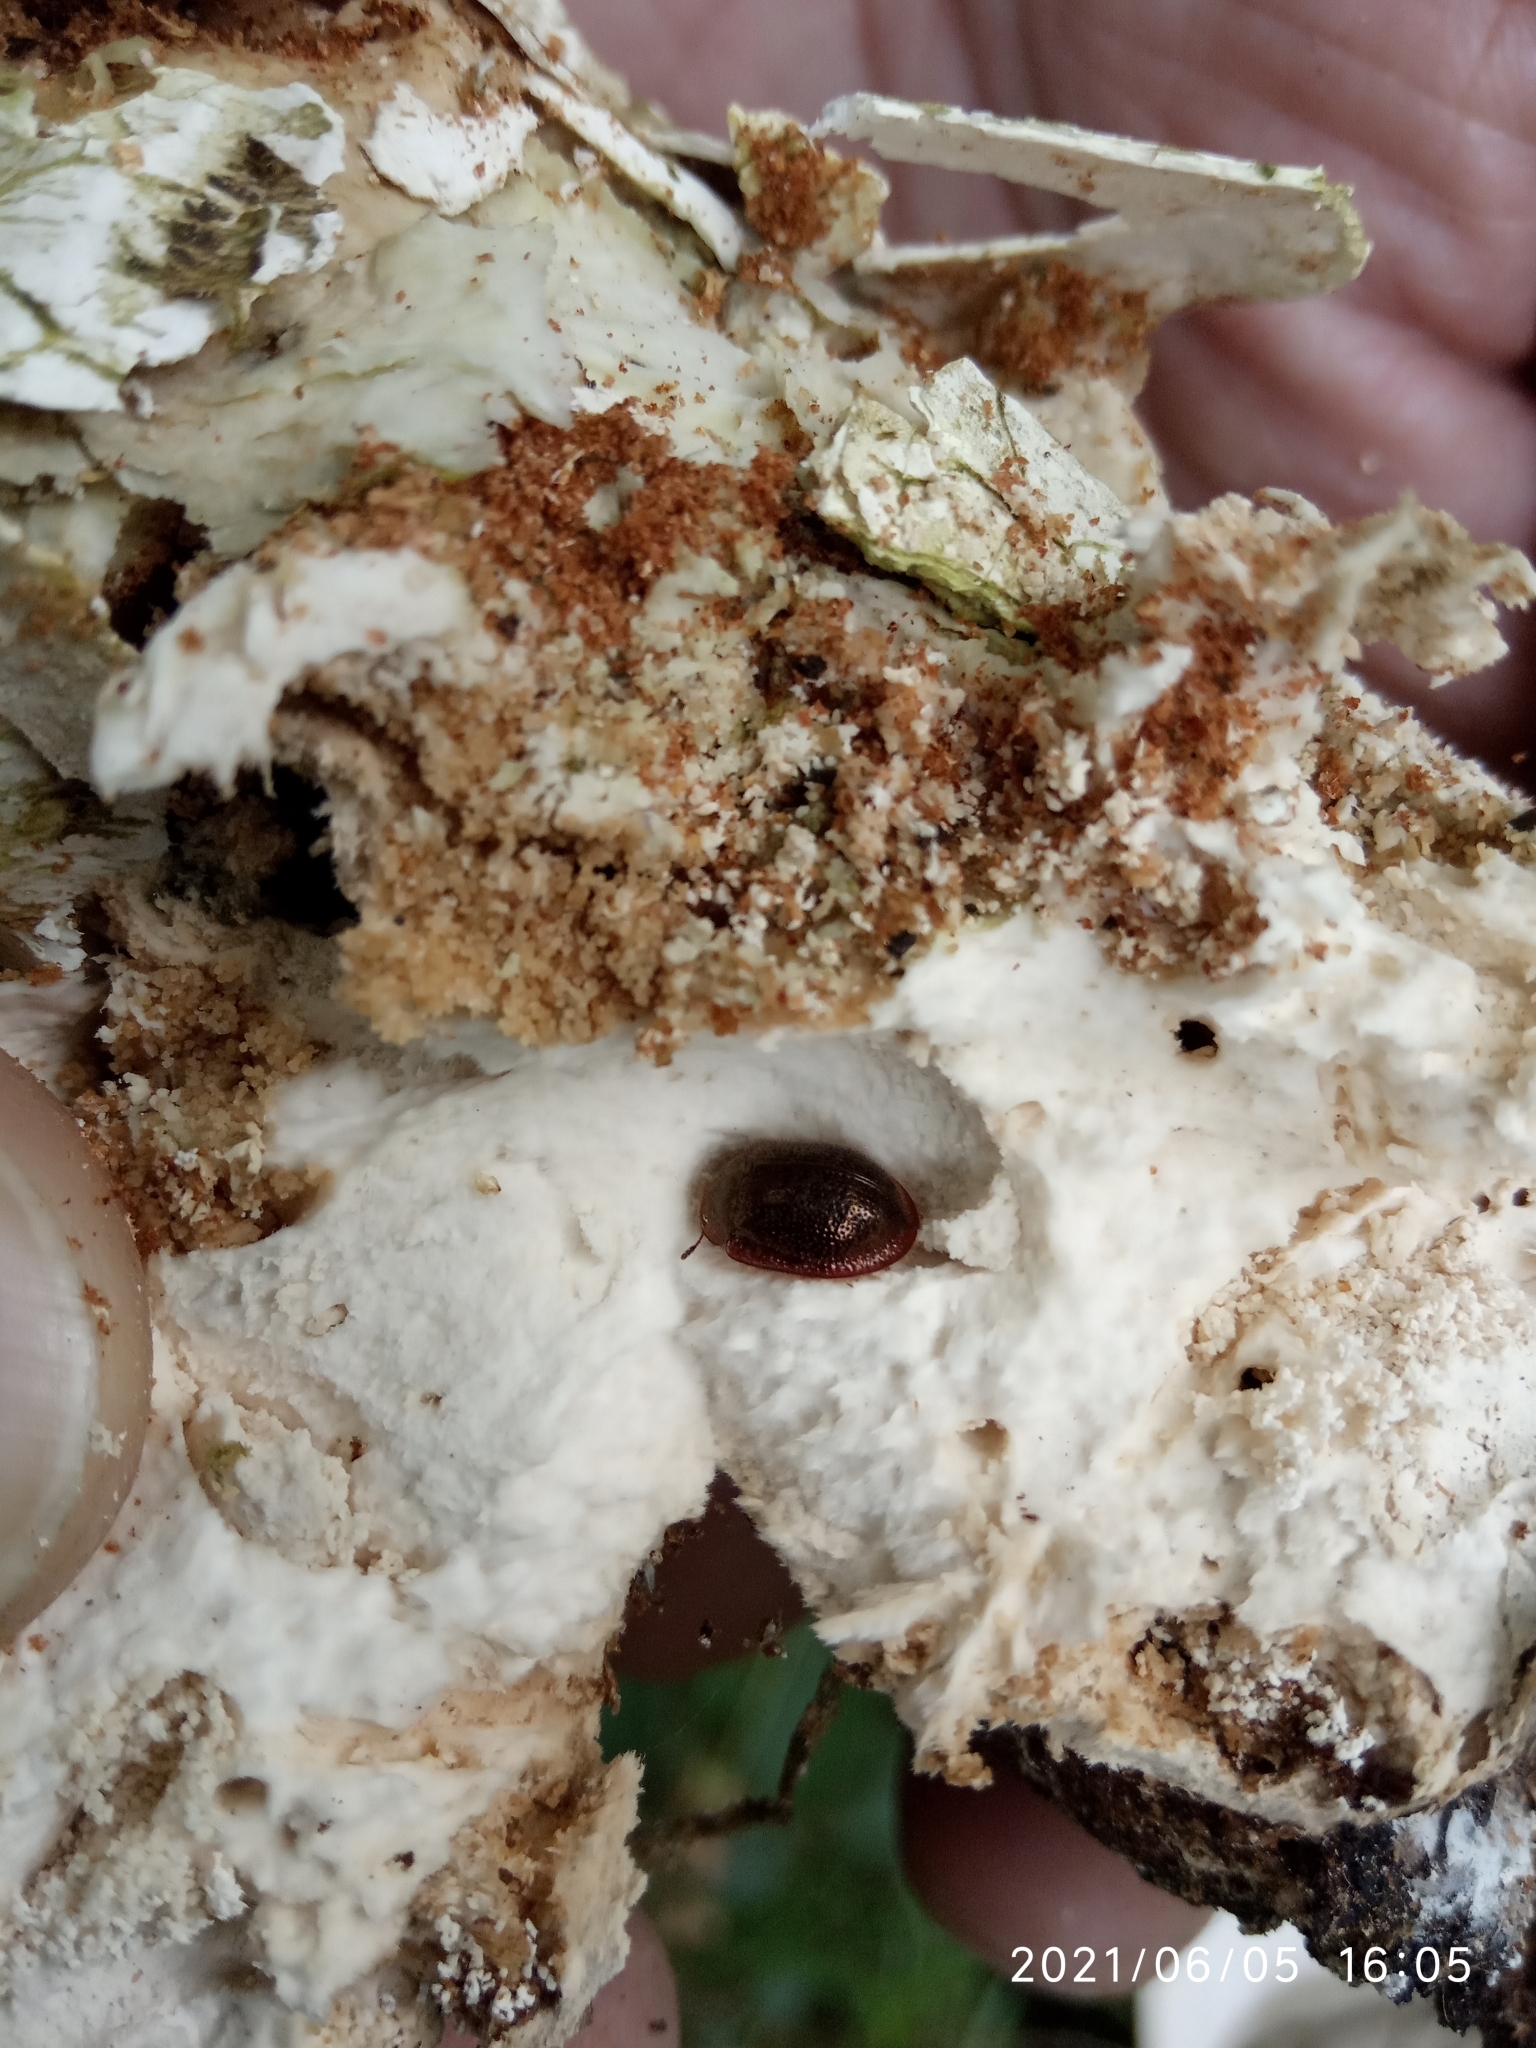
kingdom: Animalia
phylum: Arthropoda
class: Insecta
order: Coleoptera
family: Trogossitidae
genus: Thymalus
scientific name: Thymalus limbatus
